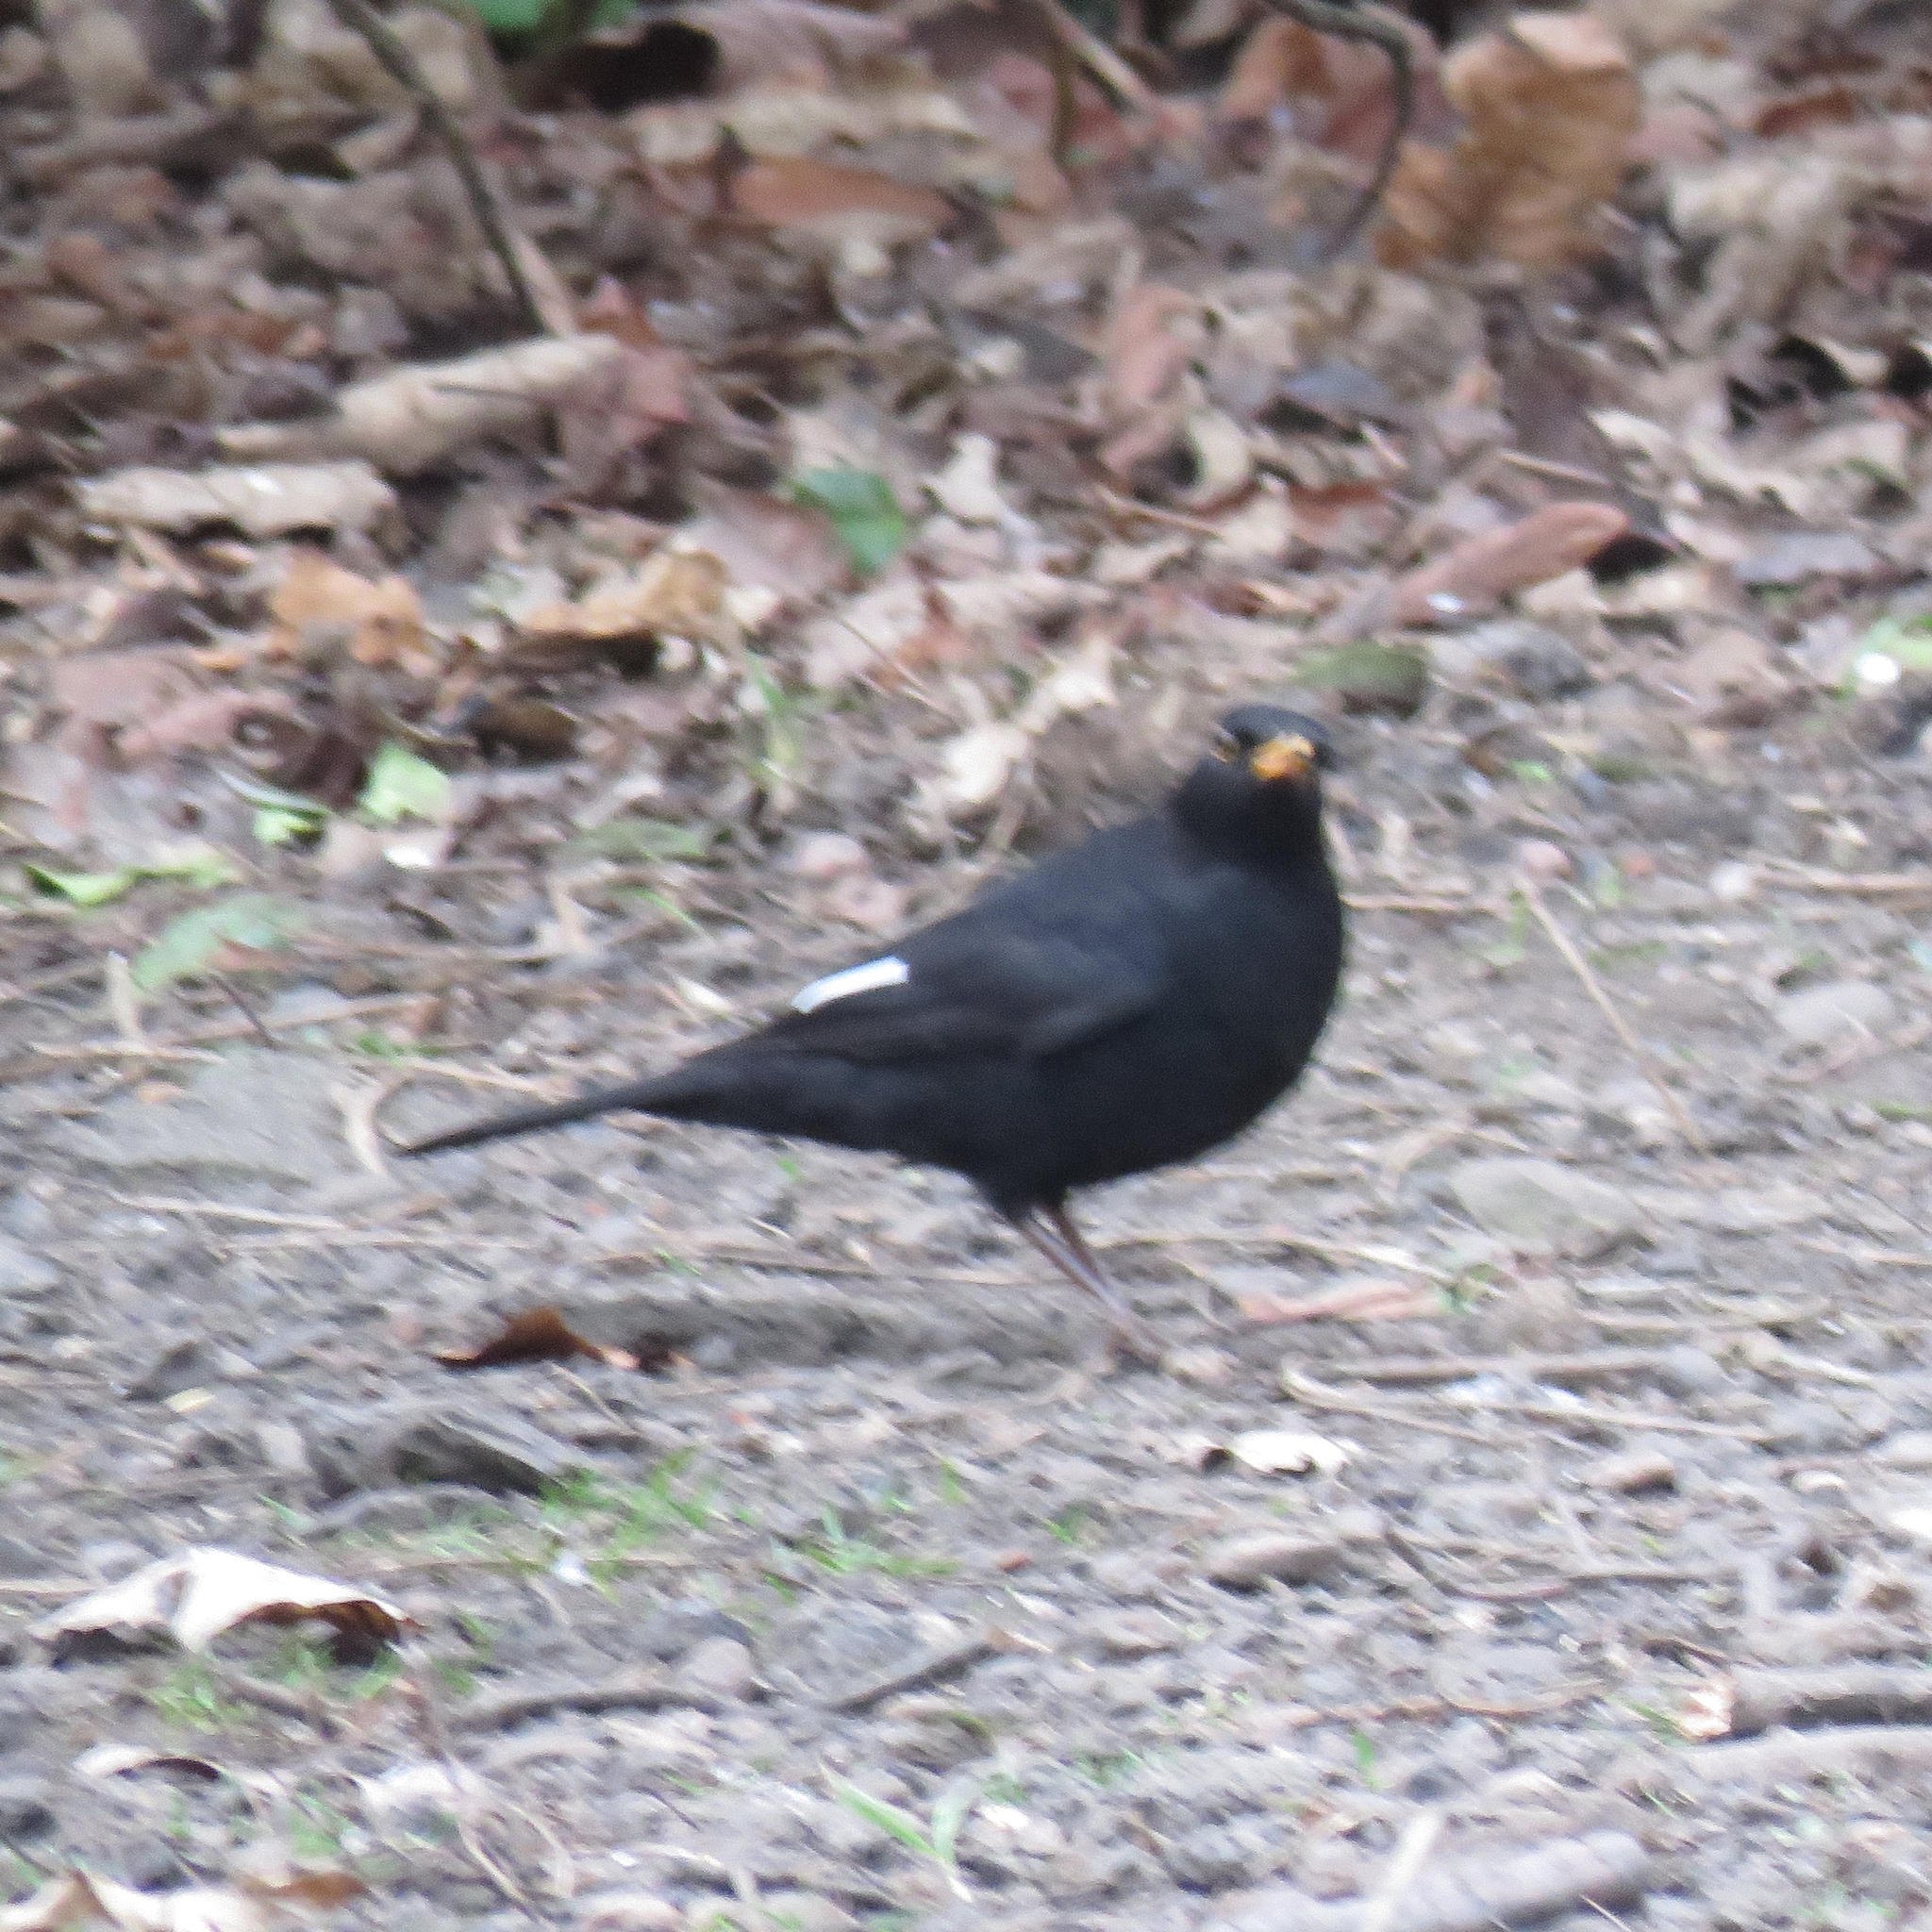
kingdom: Animalia
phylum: Chordata
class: Aves
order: Passeriformes
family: Turdidae
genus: Turdus
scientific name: Turdus merula
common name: Common blackbird
